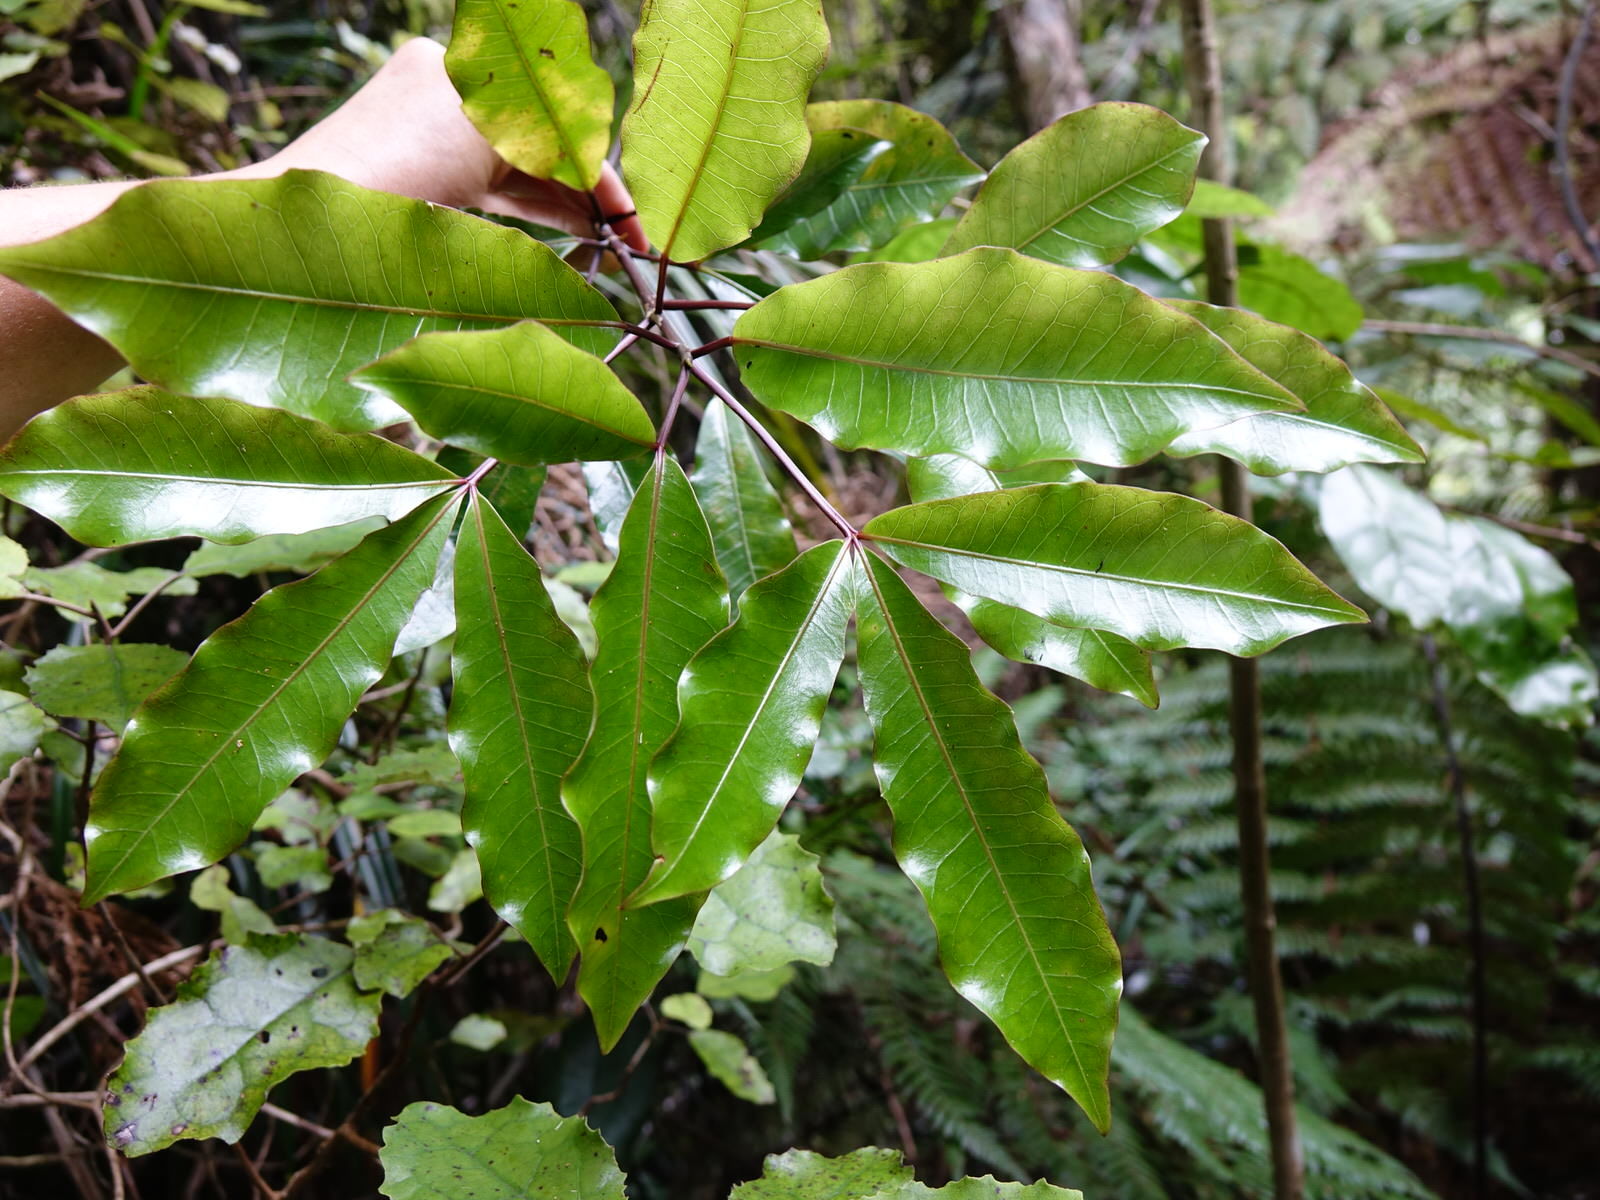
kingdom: Plantae
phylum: Tracheophyta
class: Magnoliopsida
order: Apiales
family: Araliaceae
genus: Raukaua
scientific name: Raukaua edgerleyi
